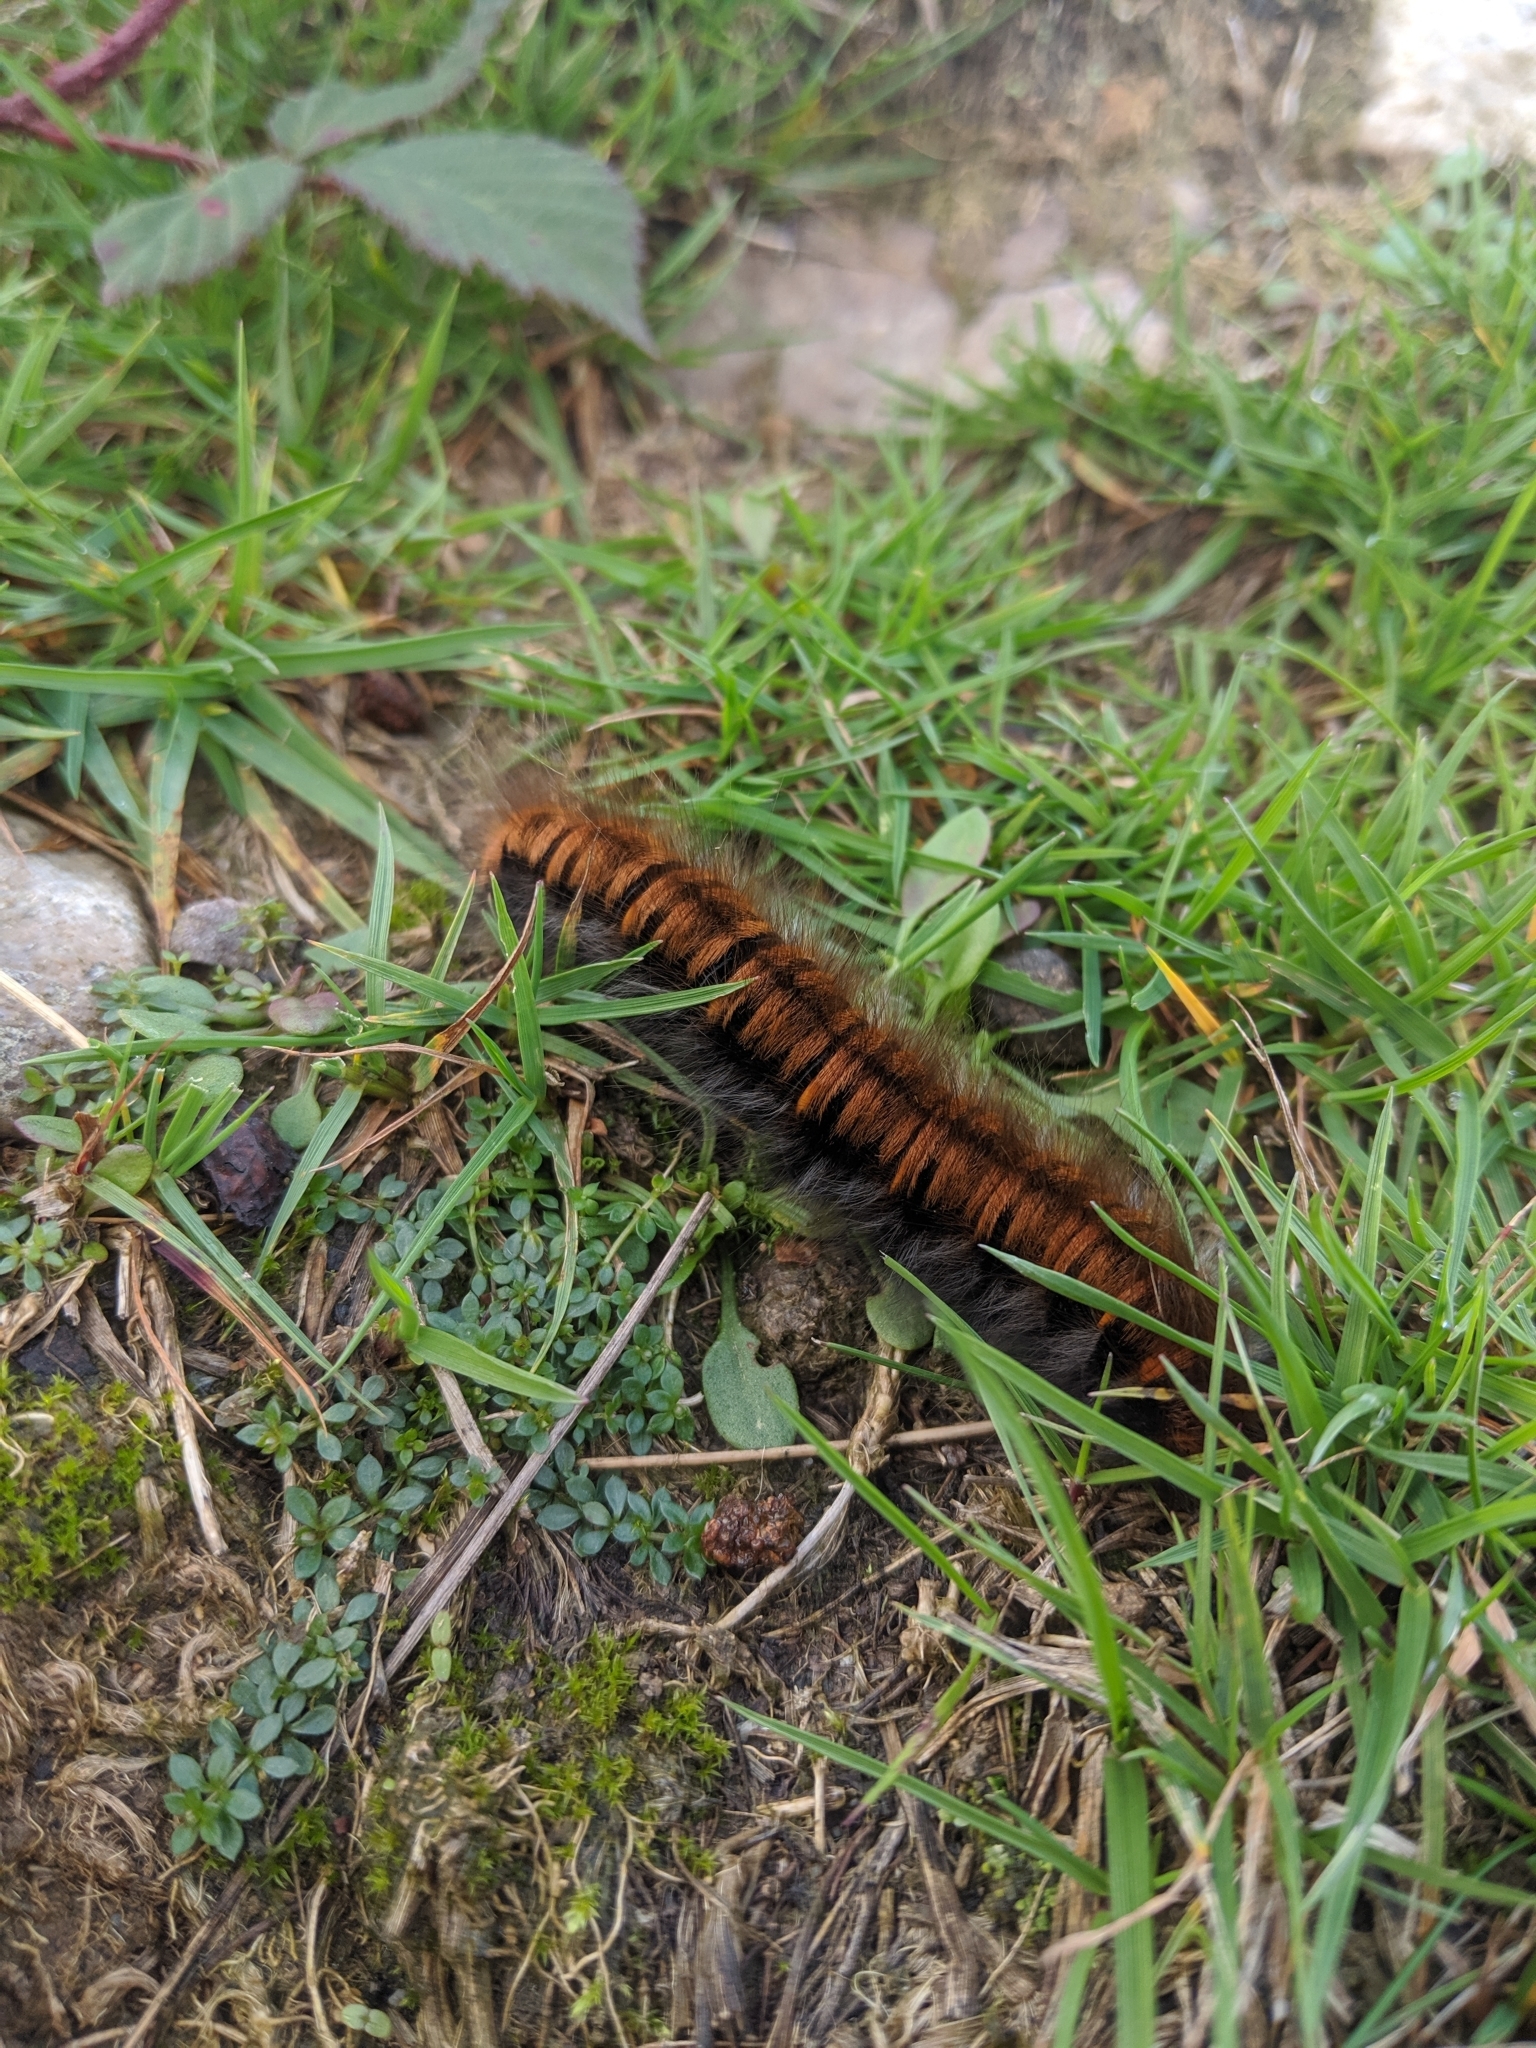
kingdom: Animalia
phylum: Arthropoda
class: Insecta
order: Lepidoptera
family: Lasiocampidae
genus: Macrothylacia
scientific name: Macrothylacia rubi
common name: Fox moth
